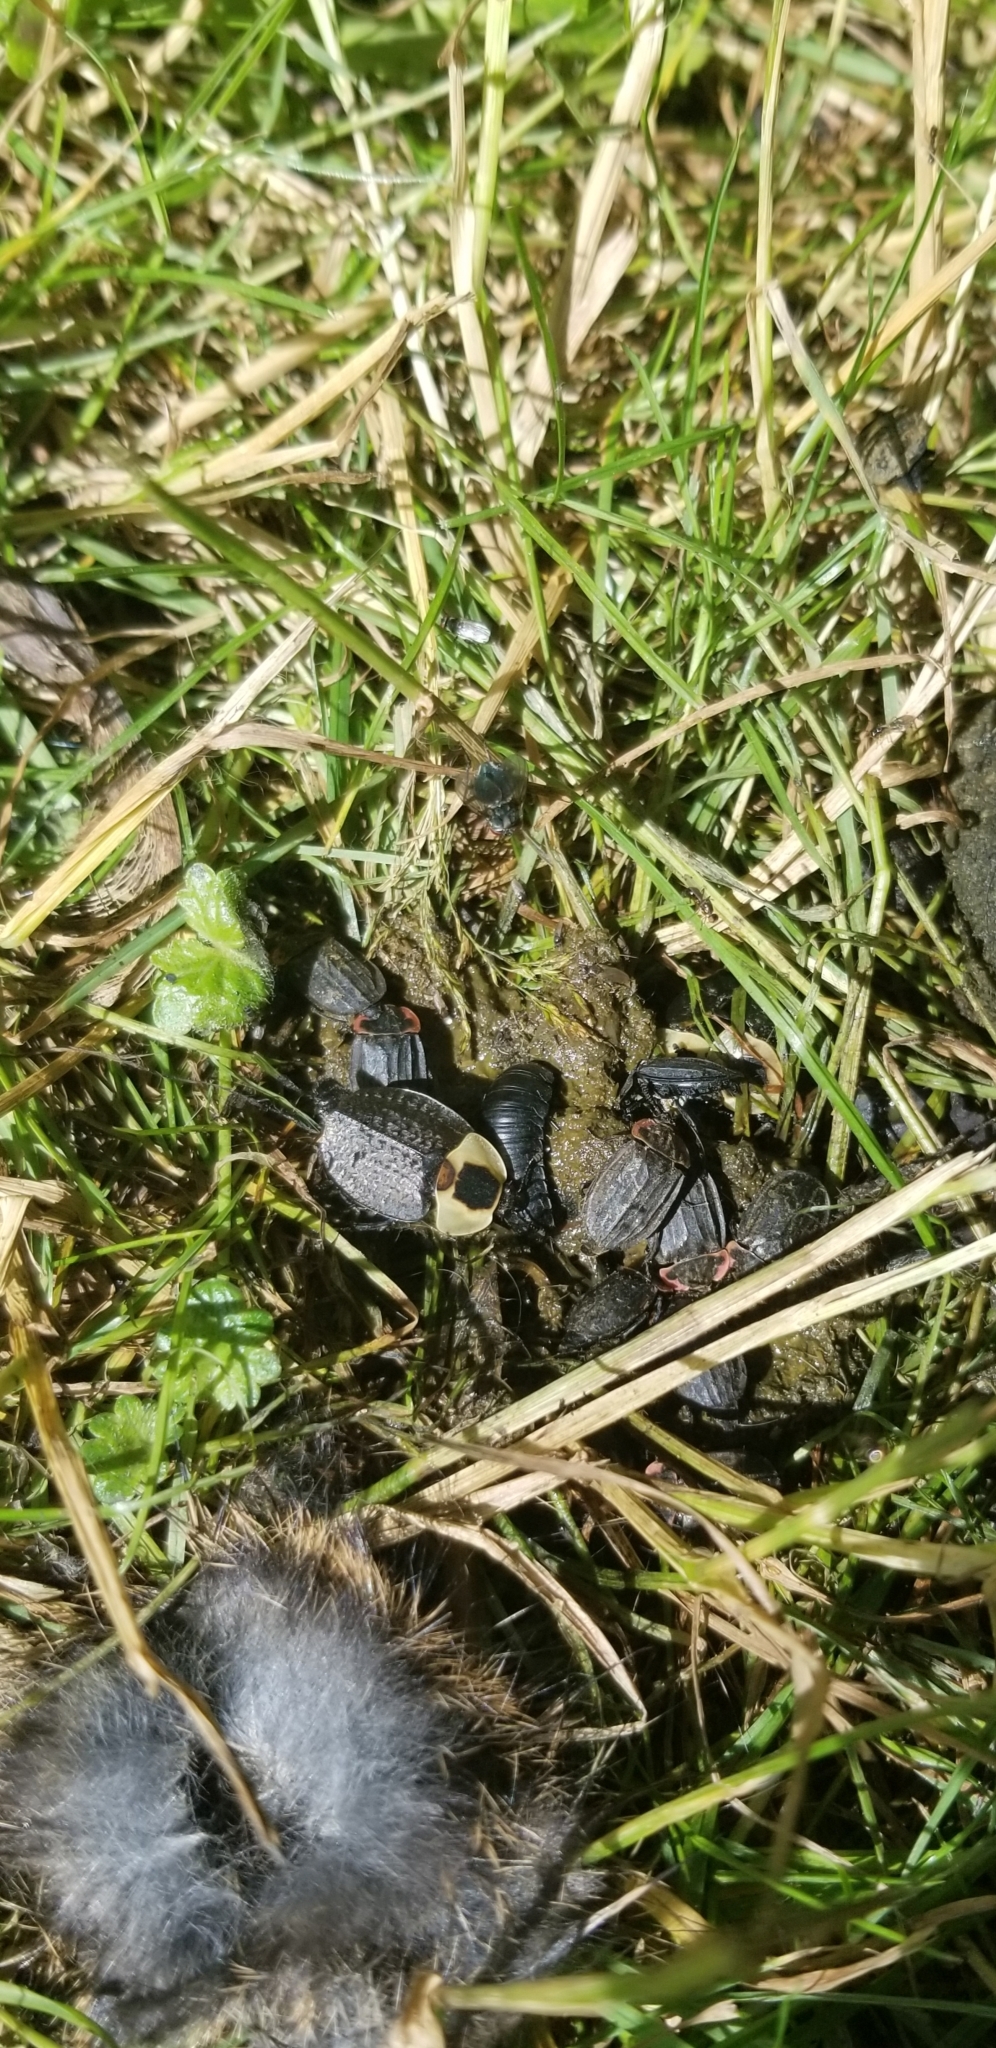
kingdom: Animalia
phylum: Arthropoda
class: Insecta
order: Coleoptera
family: Staphylinidae
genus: Necrophila
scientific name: Necrophila americana
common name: American carrion beetle
